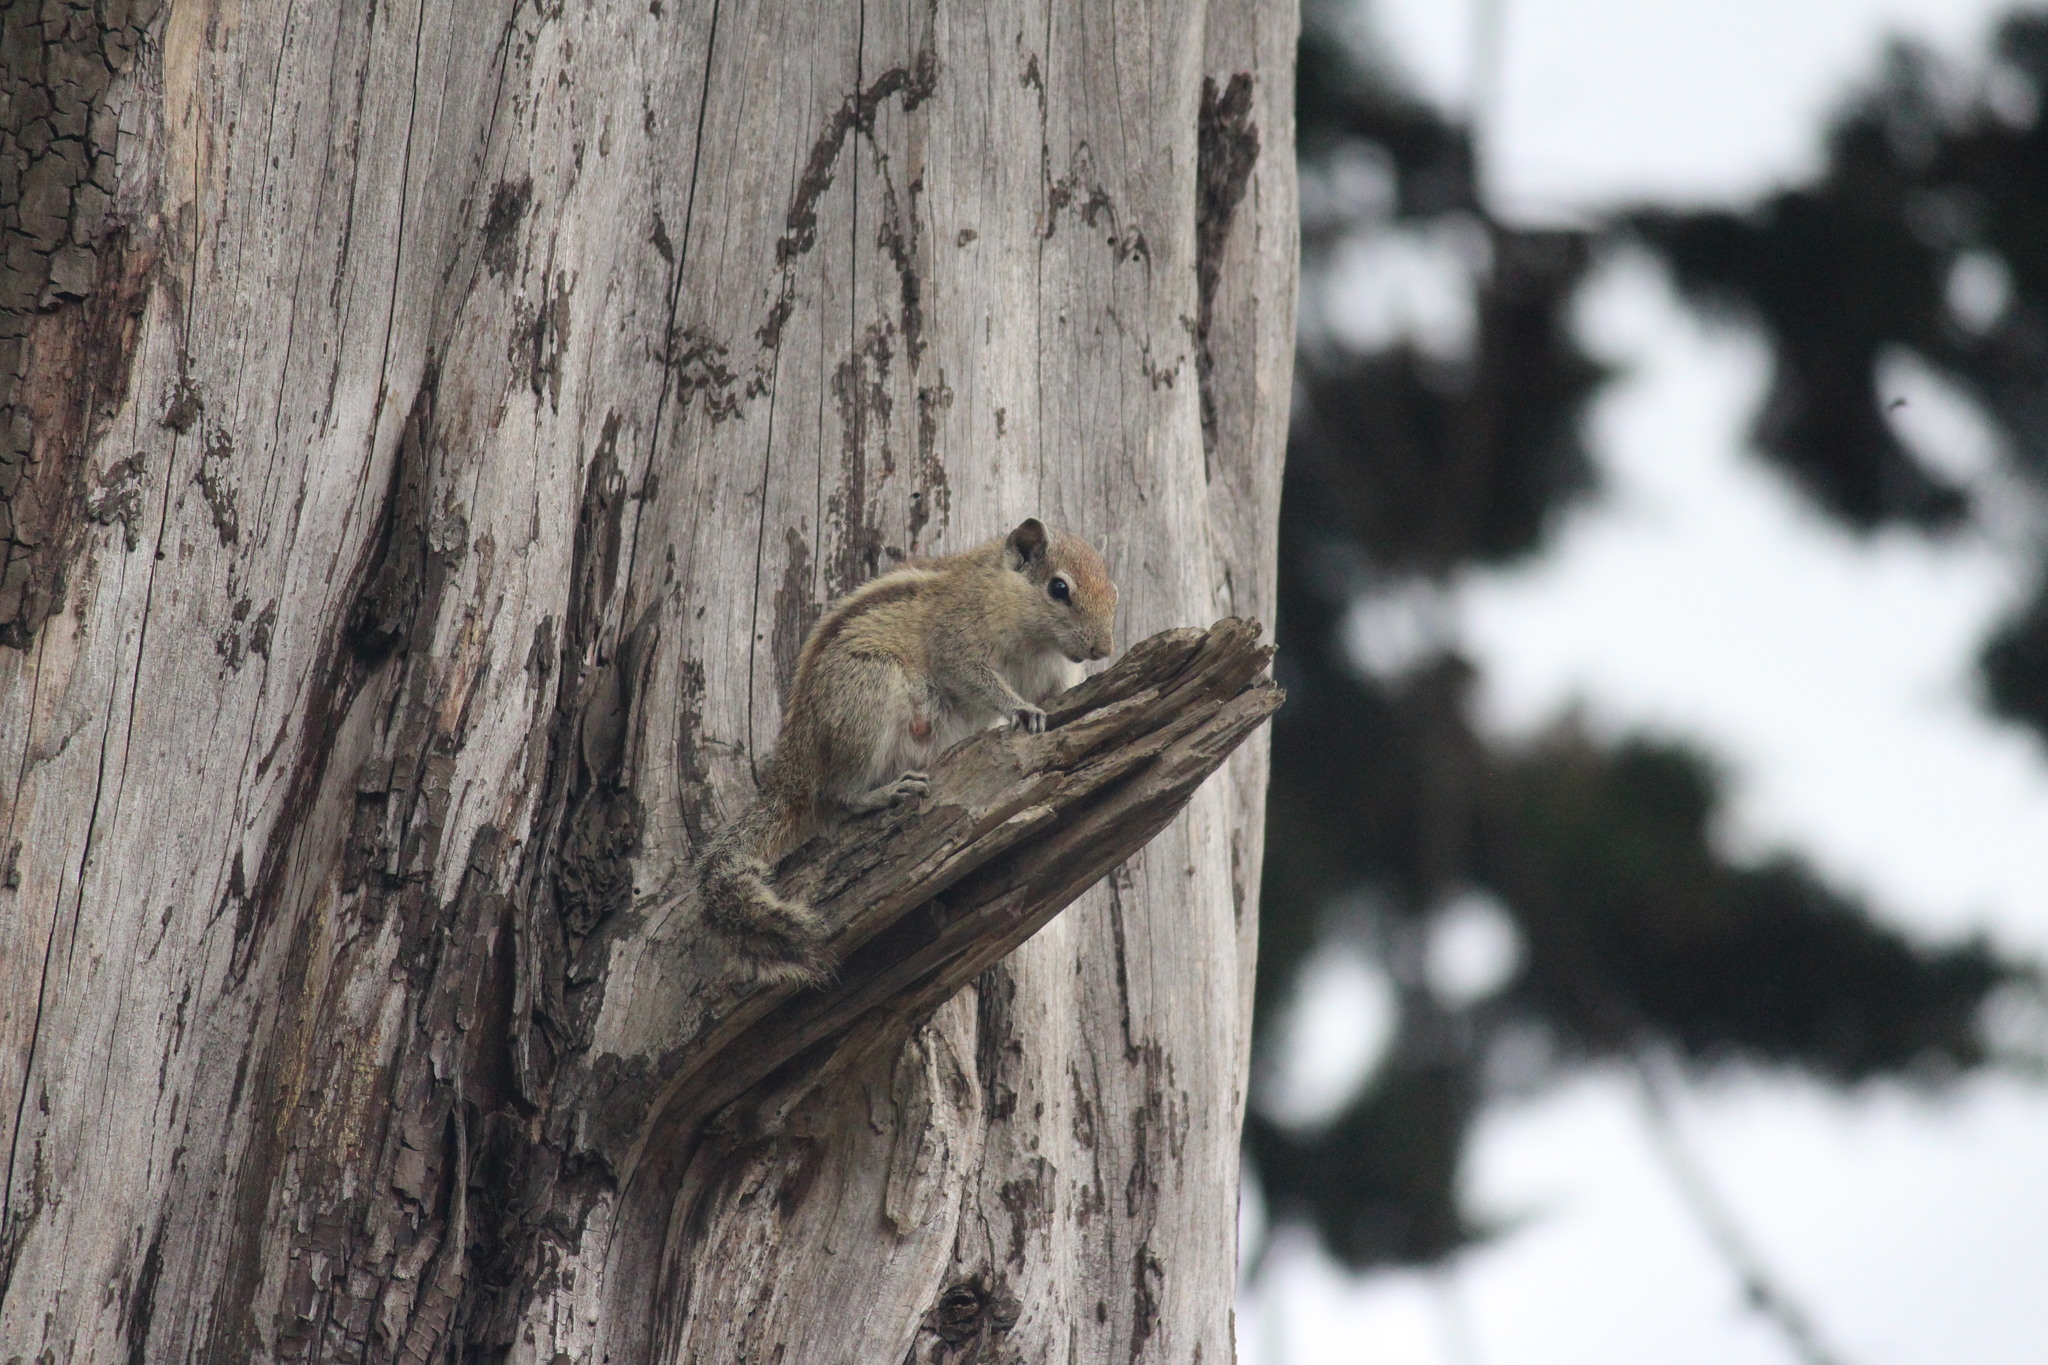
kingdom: Animalia
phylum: Chordata
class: Mammalia
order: Rodentia
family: Sciuridae
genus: Funambulus
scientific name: Funambulus palmarum
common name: Indian palm squirrel
